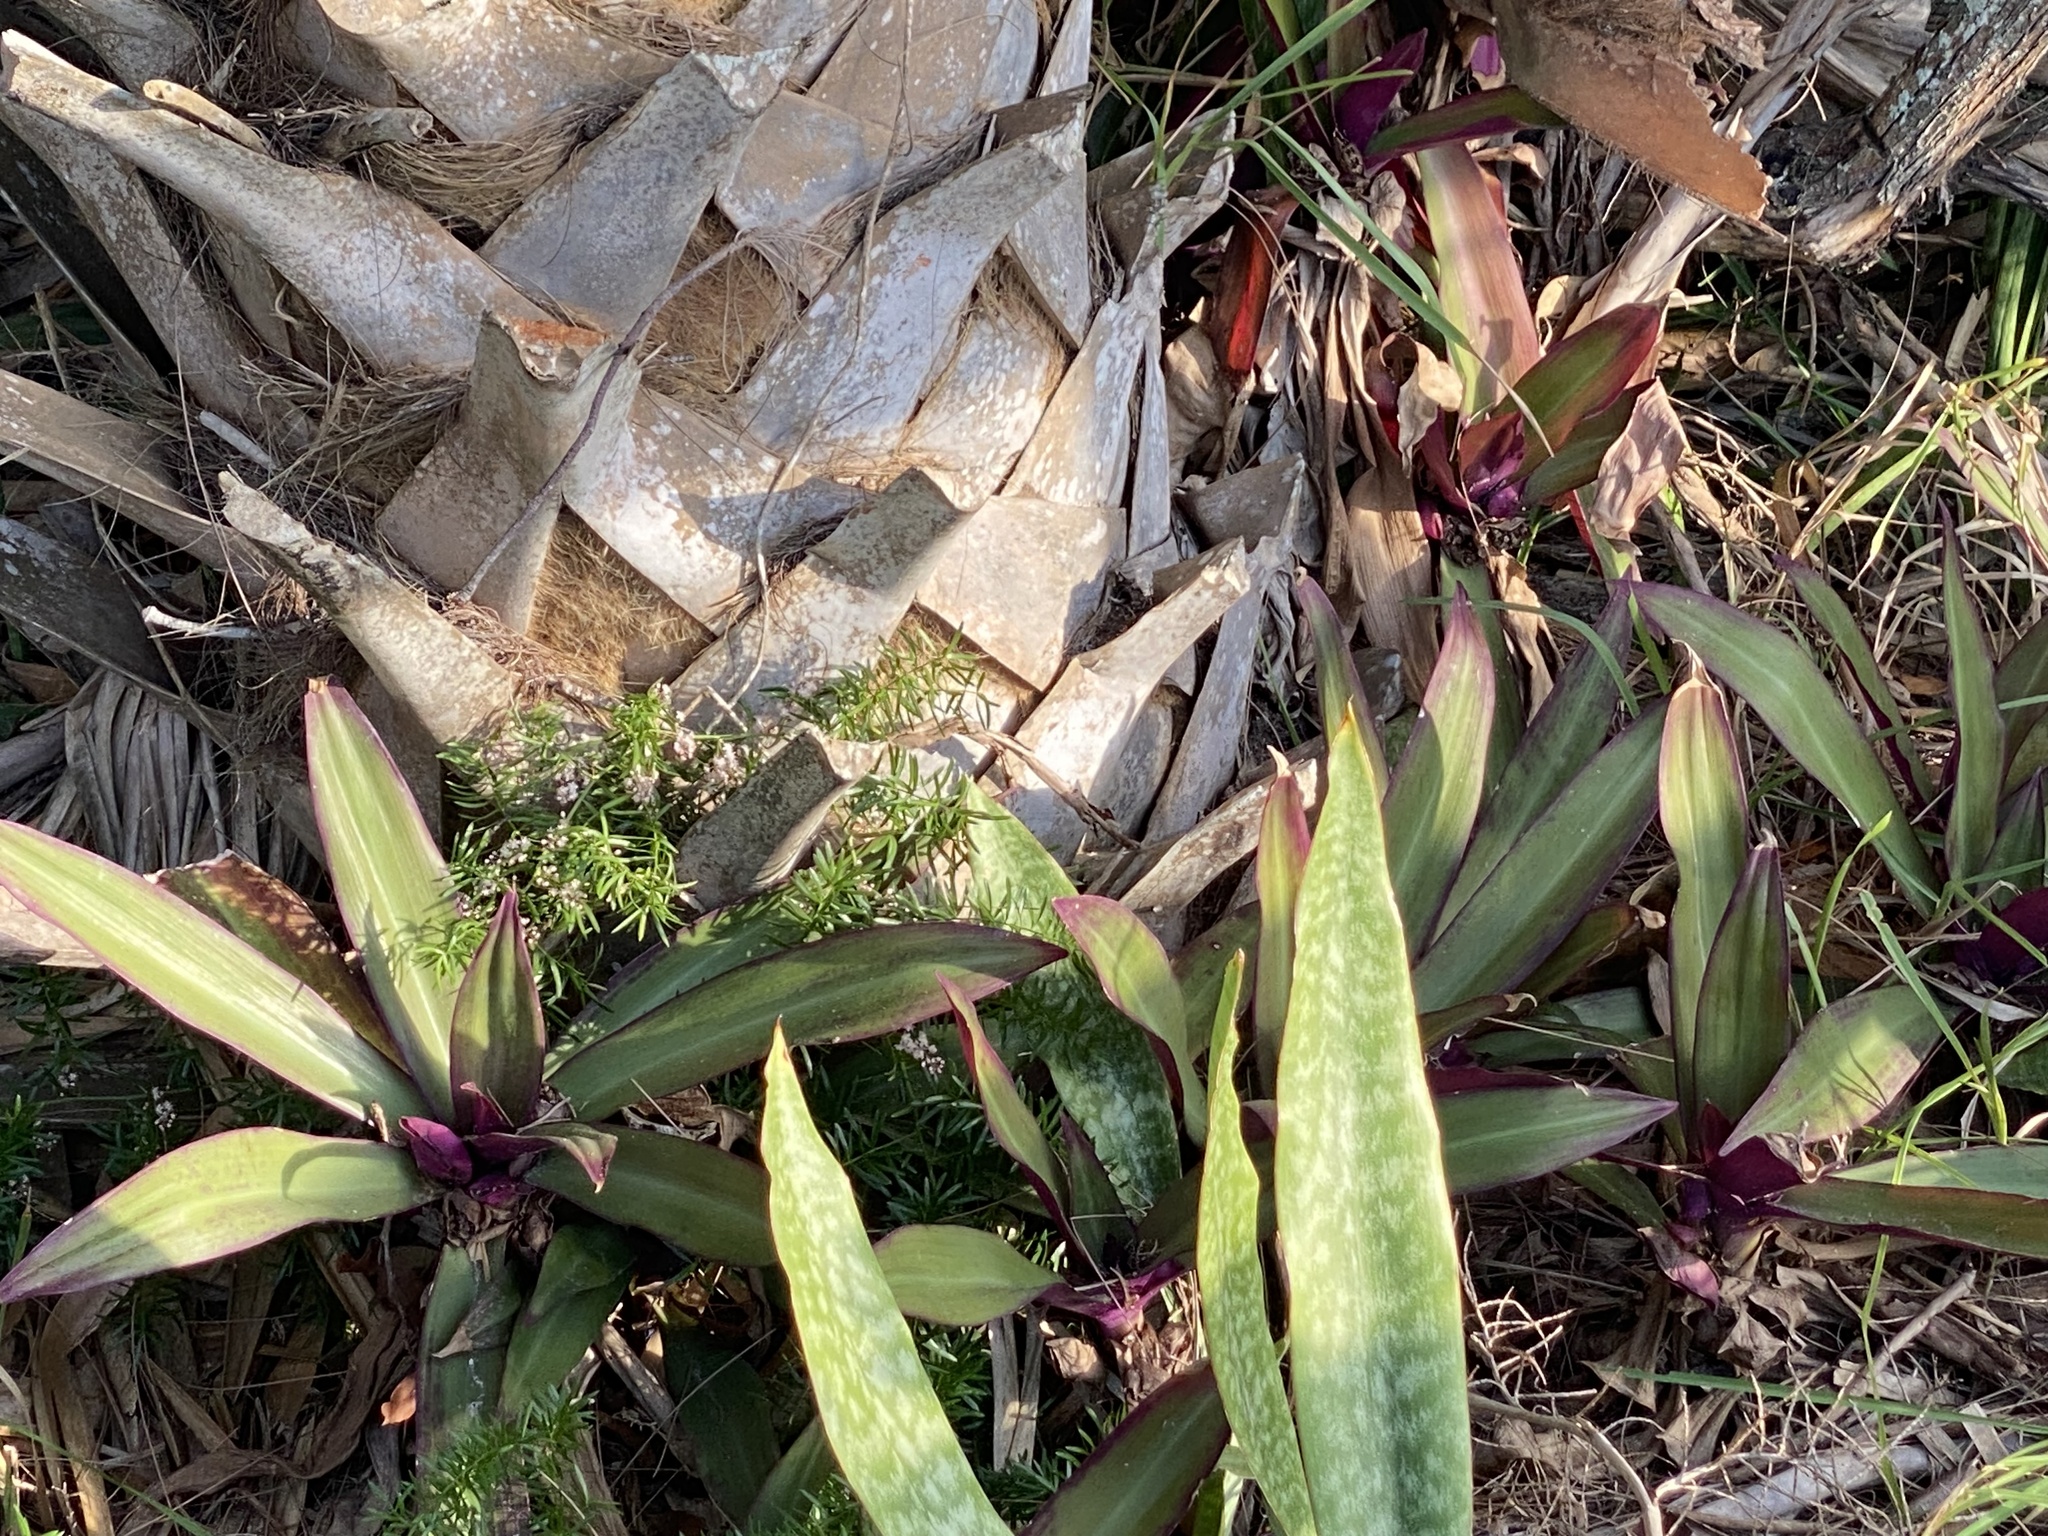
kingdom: Plantae
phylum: Tracheophyta
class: Liliopsida
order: Commelinales
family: Commelinaceae
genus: Tradescantia
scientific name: Tradescantia spathacea
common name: Boatlily
